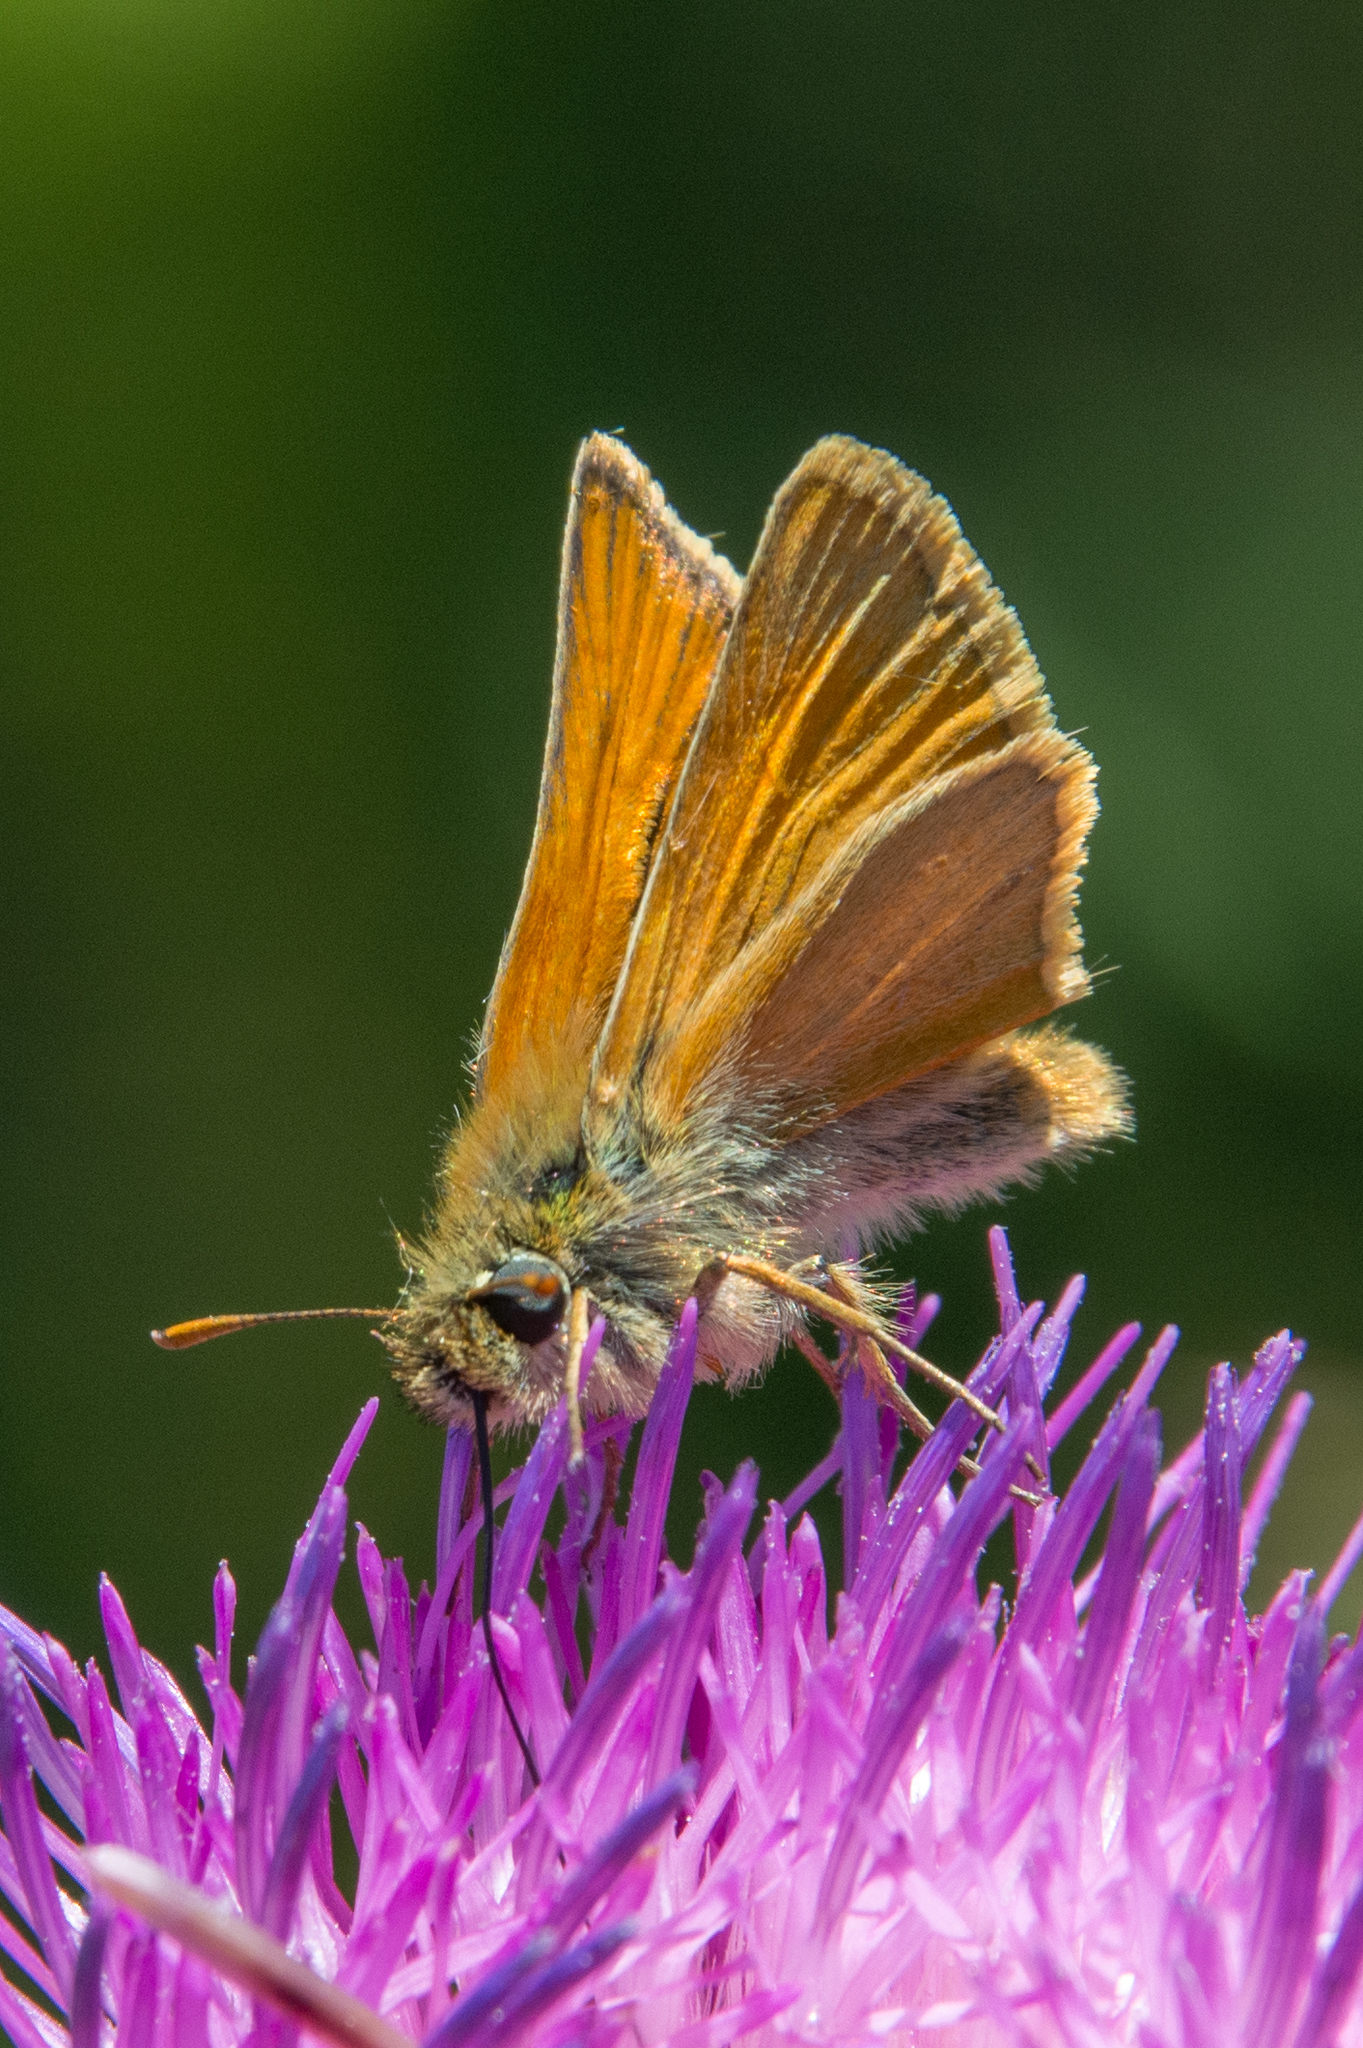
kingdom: Animalia
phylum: Arthropoda
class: Insecta
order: Lepidoptera
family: Hesperiidae
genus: Thymelicus
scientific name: Thymelicus sylvestris
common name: Small skipper
